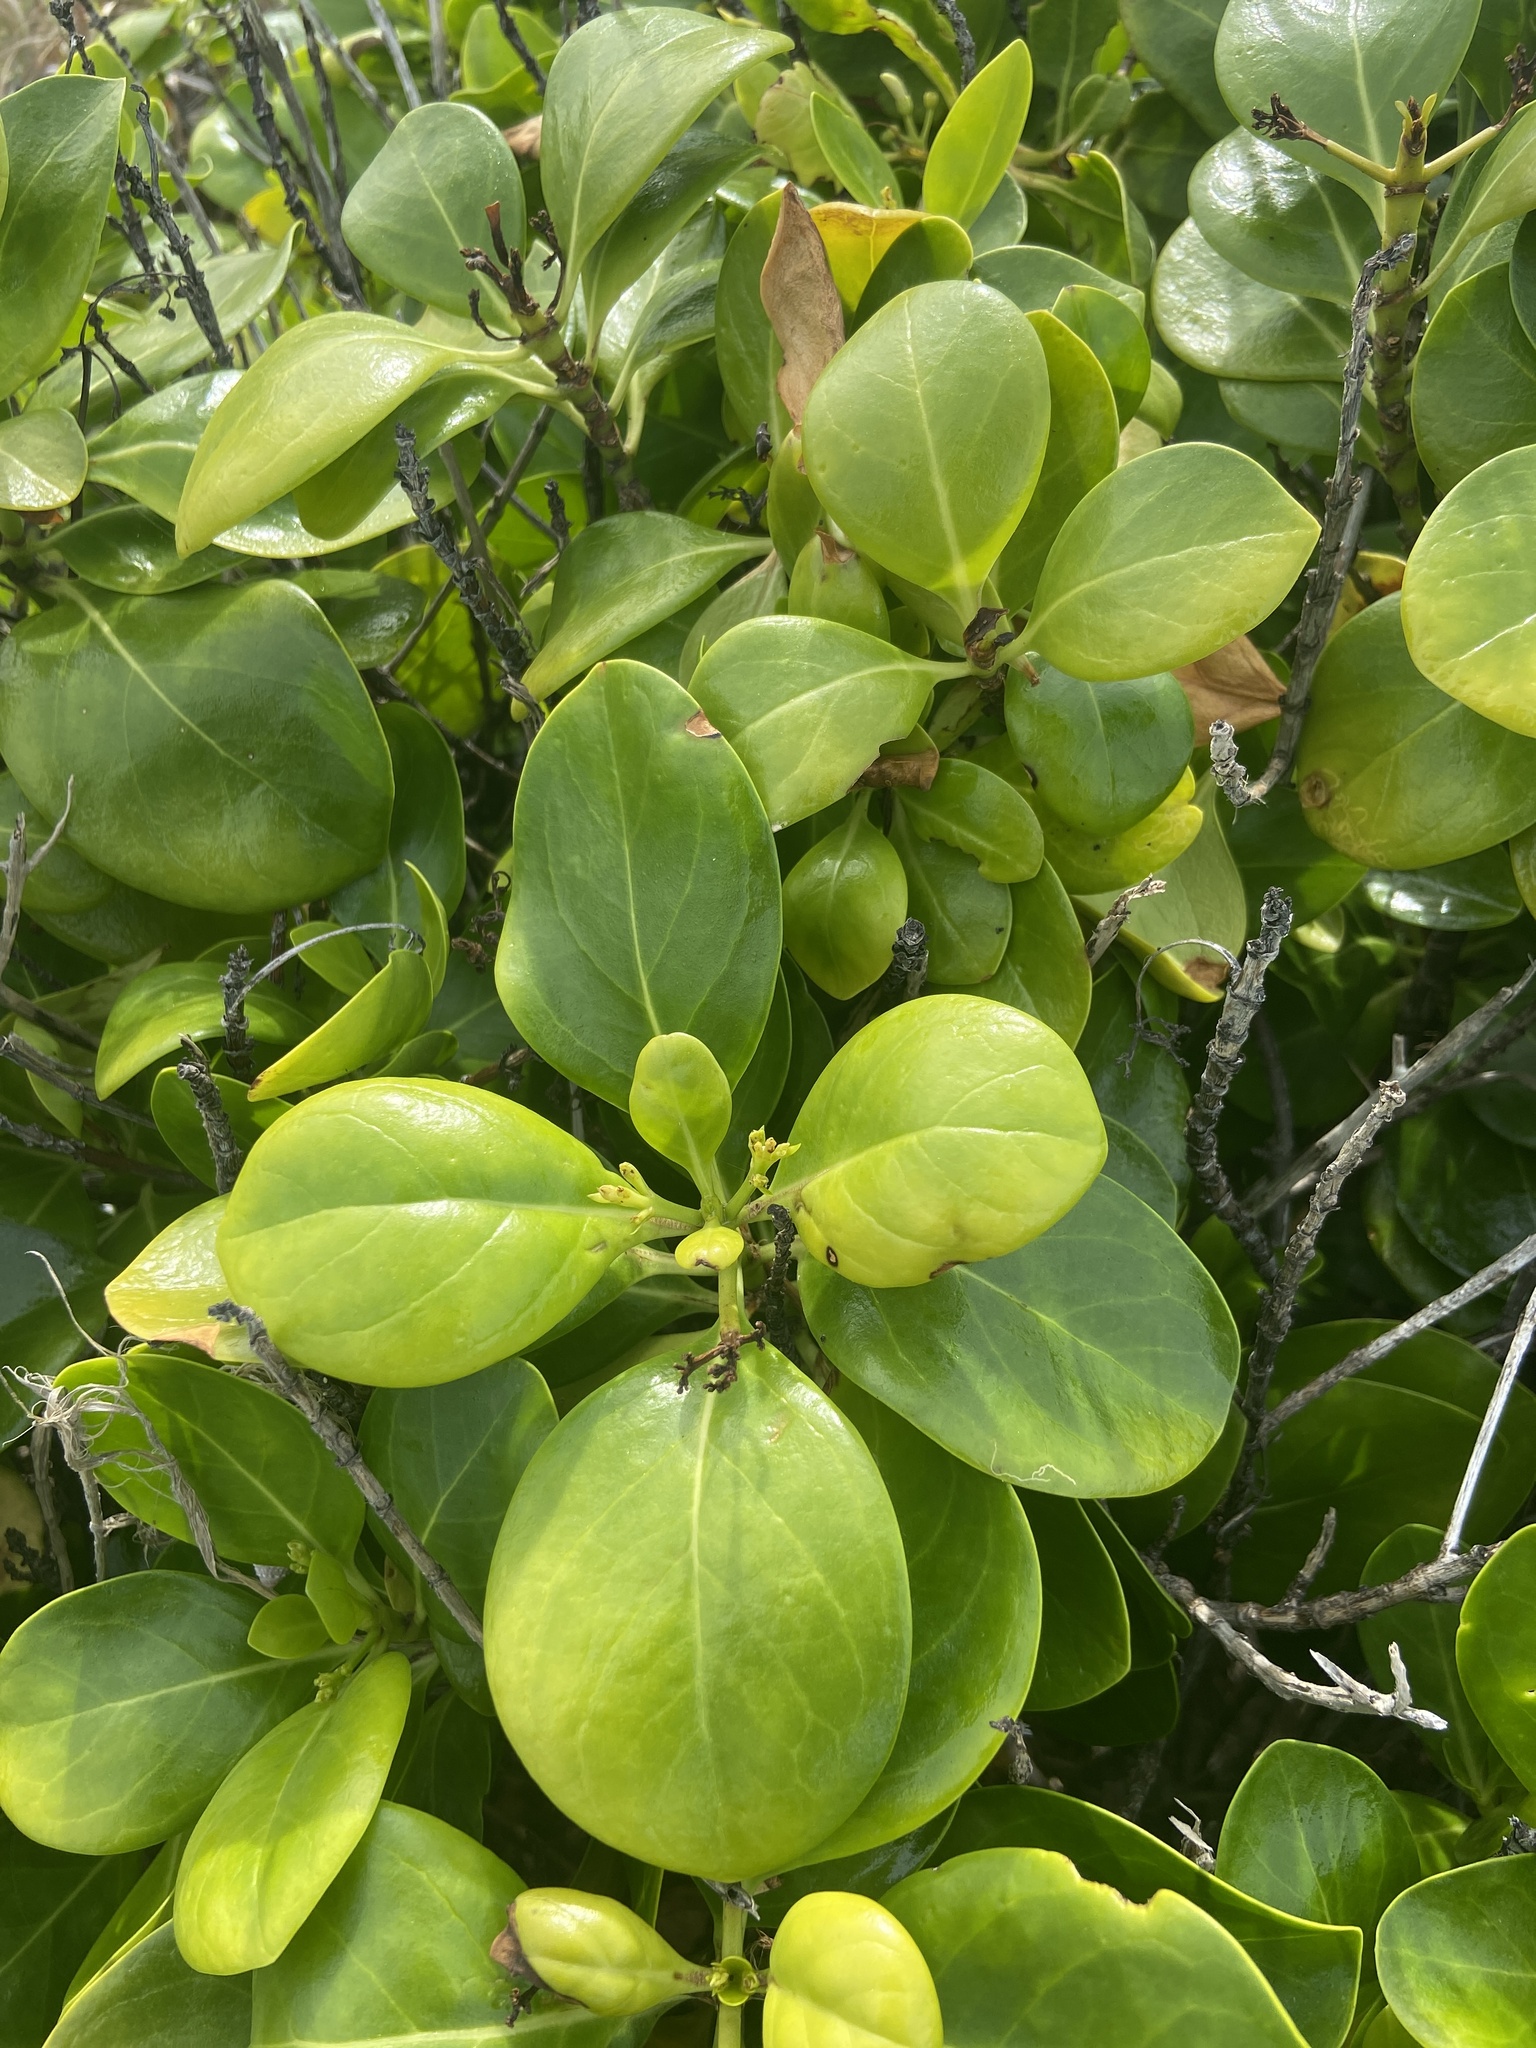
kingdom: Plantae
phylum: Tracheophyta
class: Magnoliopsida
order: Gentianales
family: Rubiaceae
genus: Erithalis
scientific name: Erithalis fruticosa
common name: Candlewood
